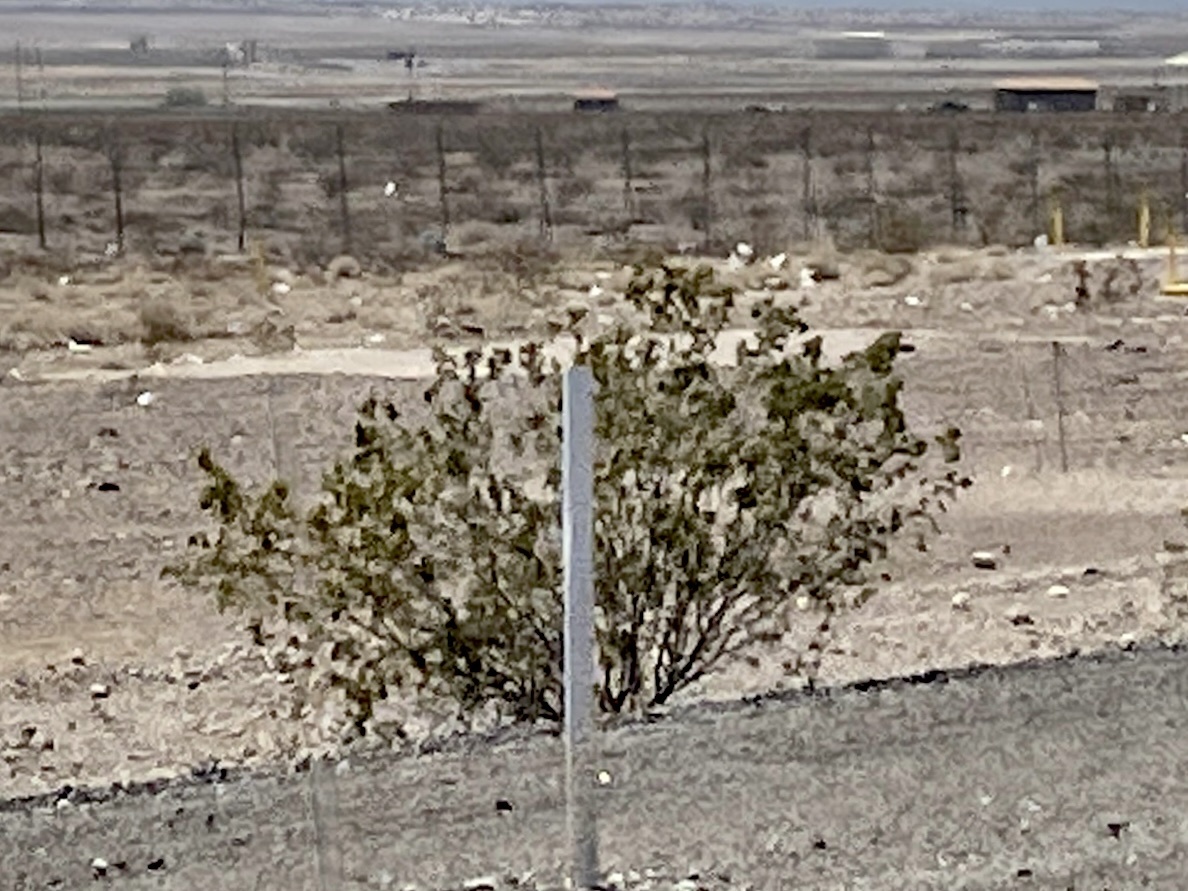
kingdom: Plantae
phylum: Tracheophyta
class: Magnoliopsida
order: Zygophyllales
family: Zygophyllaceae
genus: Larrea
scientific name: Larrea tridentata
